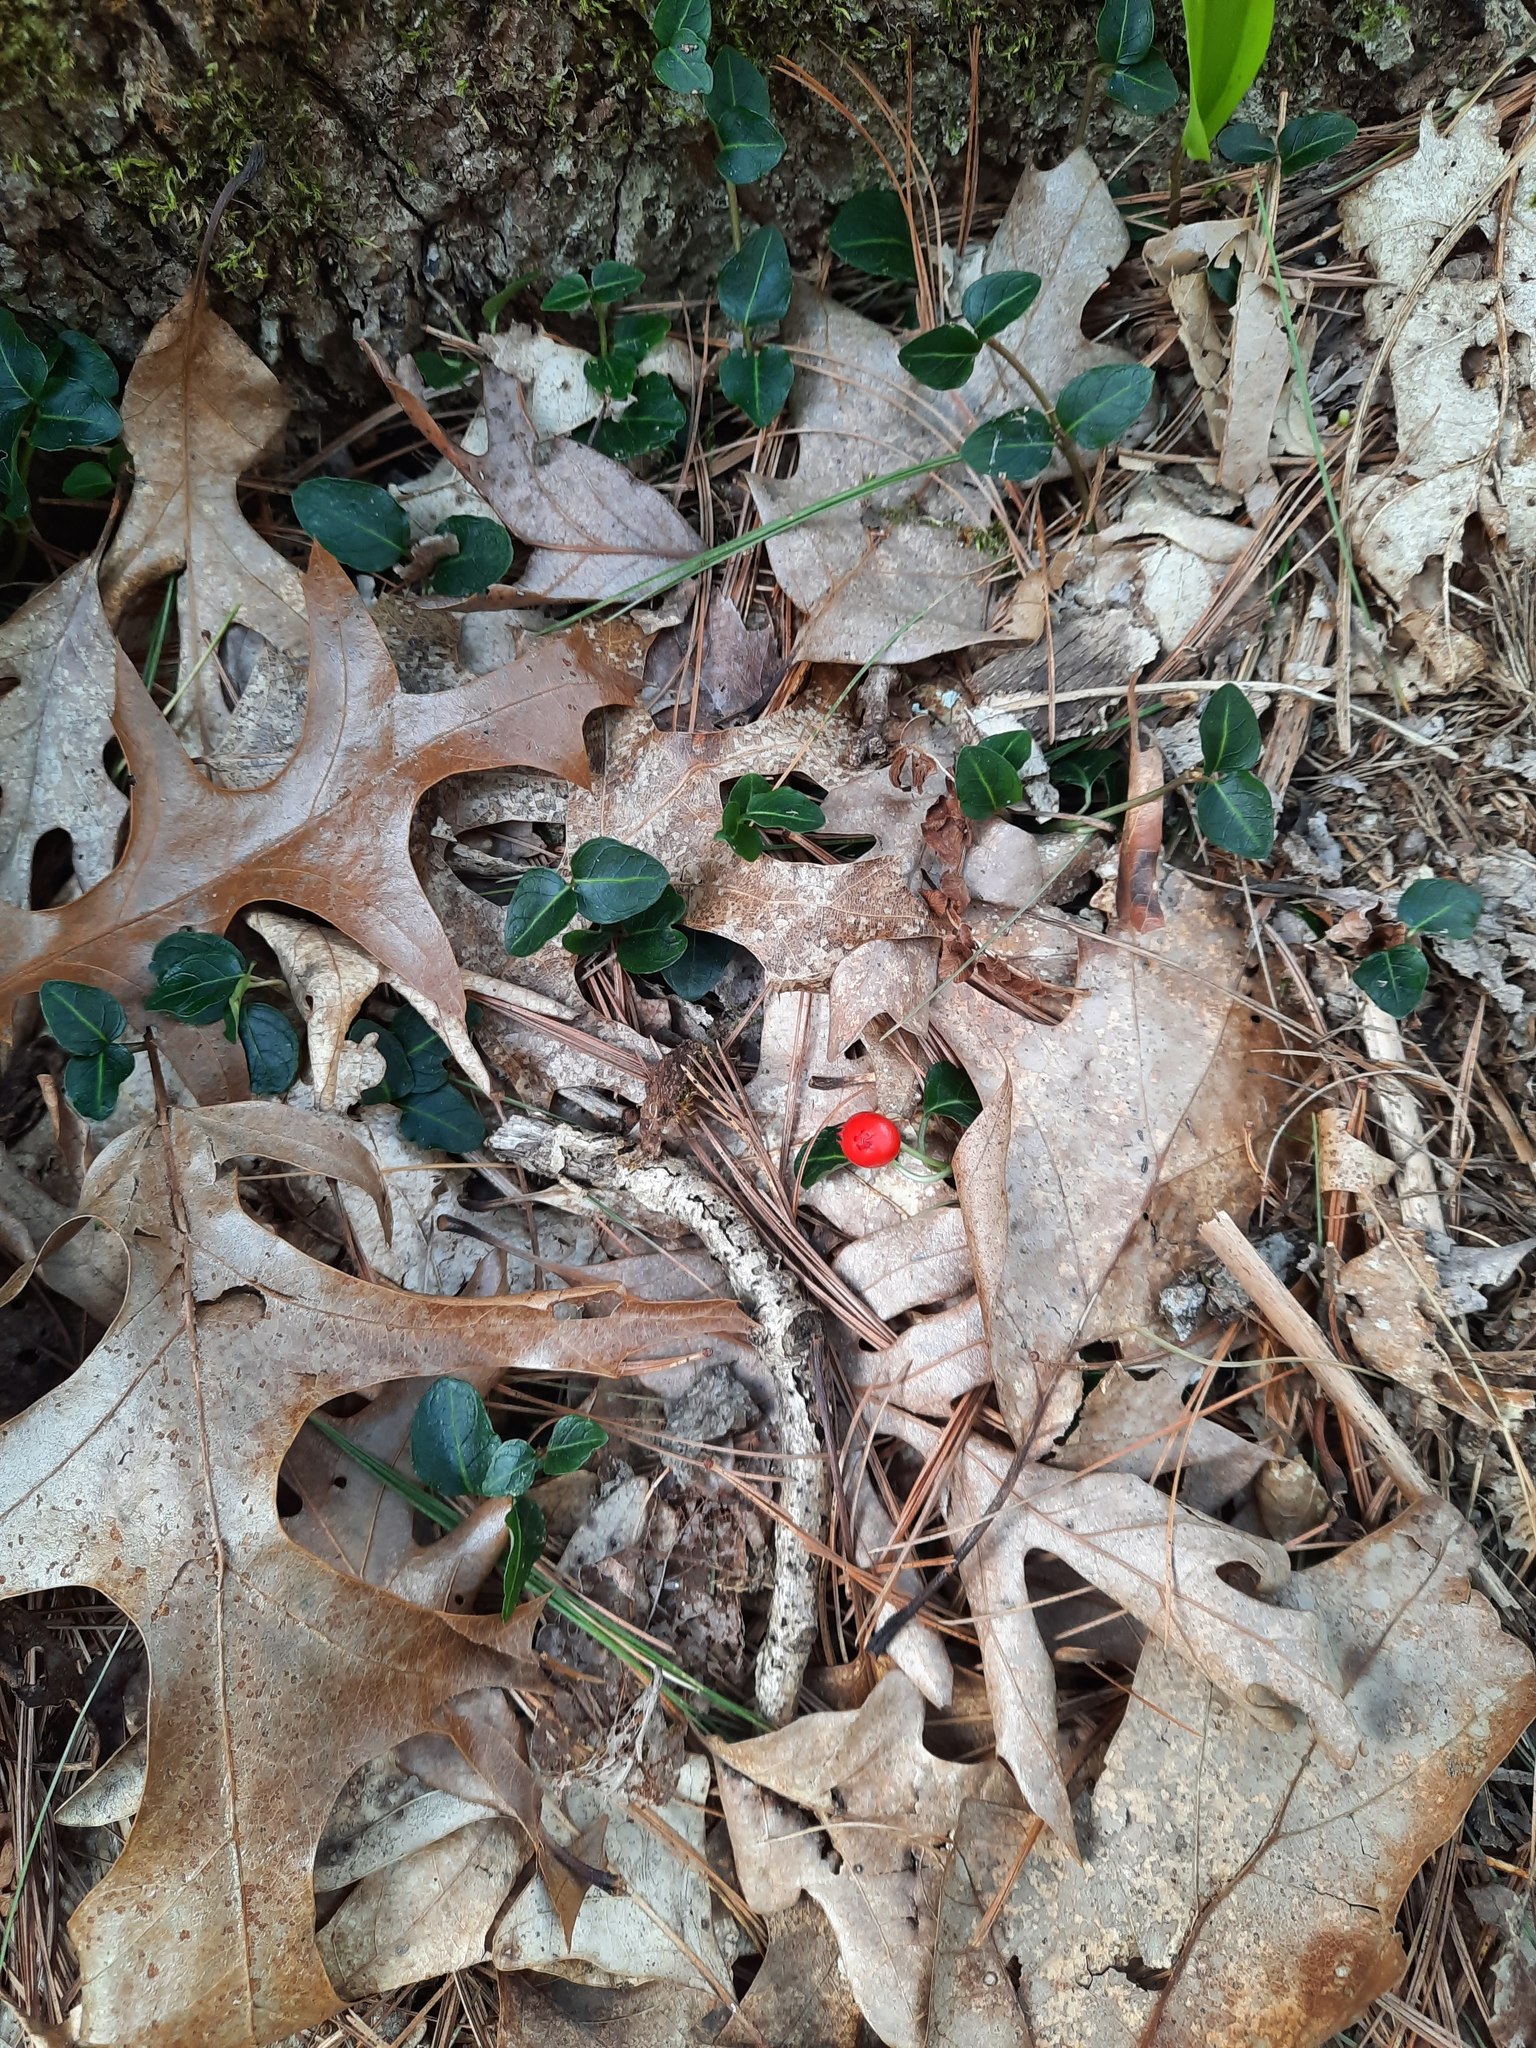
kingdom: Plantae
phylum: Tracheophyta
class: Magnoliopsida
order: Gentianales
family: Rubiaceae
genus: Mitchella
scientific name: Mitchella repens
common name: Partridge-berry
